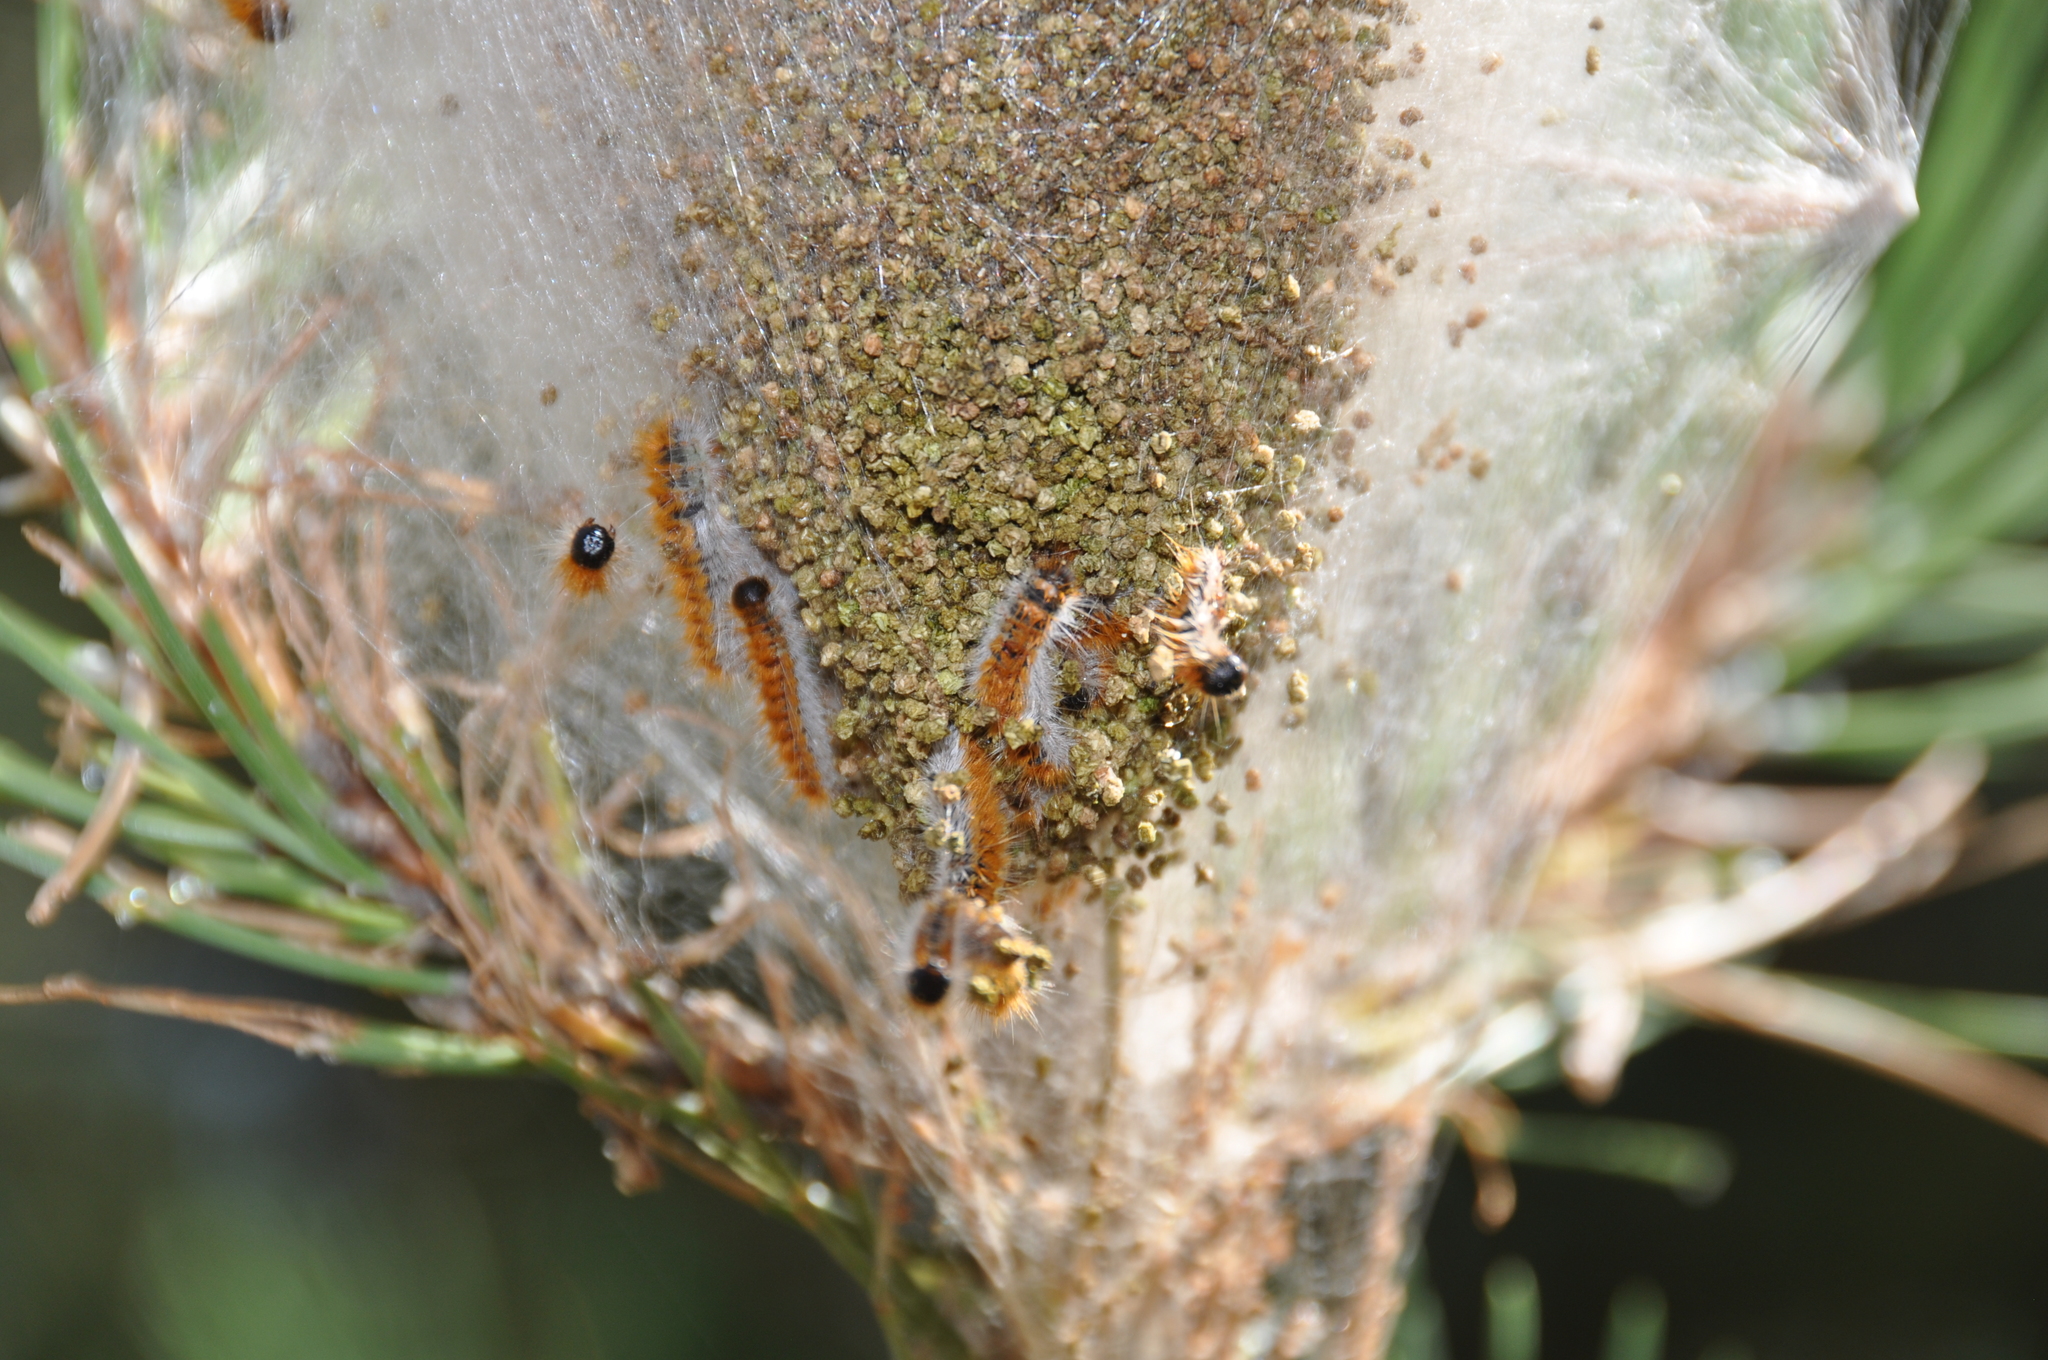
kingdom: Animalia
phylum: Arthropoda
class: Insecta
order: Lepidoptera
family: Notodontidae
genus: Thaumetopoea
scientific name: Thaumetopoea pityocampa
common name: Pine processionary
